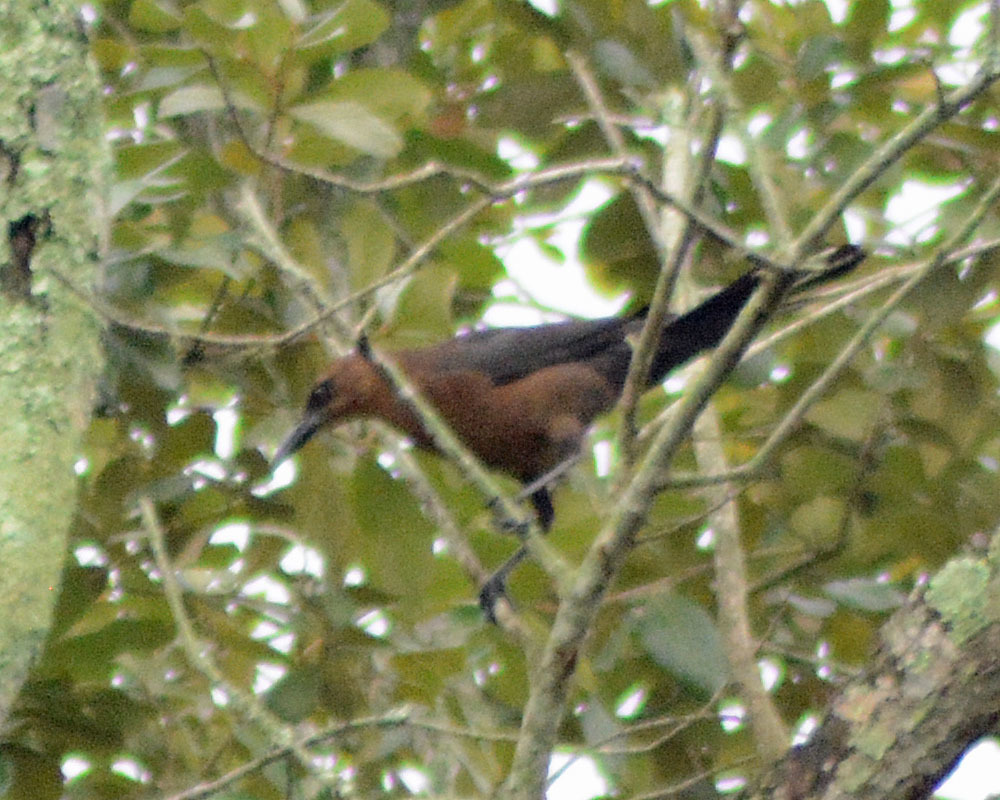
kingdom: Animalia
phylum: Chordata
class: Aves
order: Passeriformes
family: Icteridae
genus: Quiscalus
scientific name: Quiscalus mexicanus
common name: Great-tailed grackle
